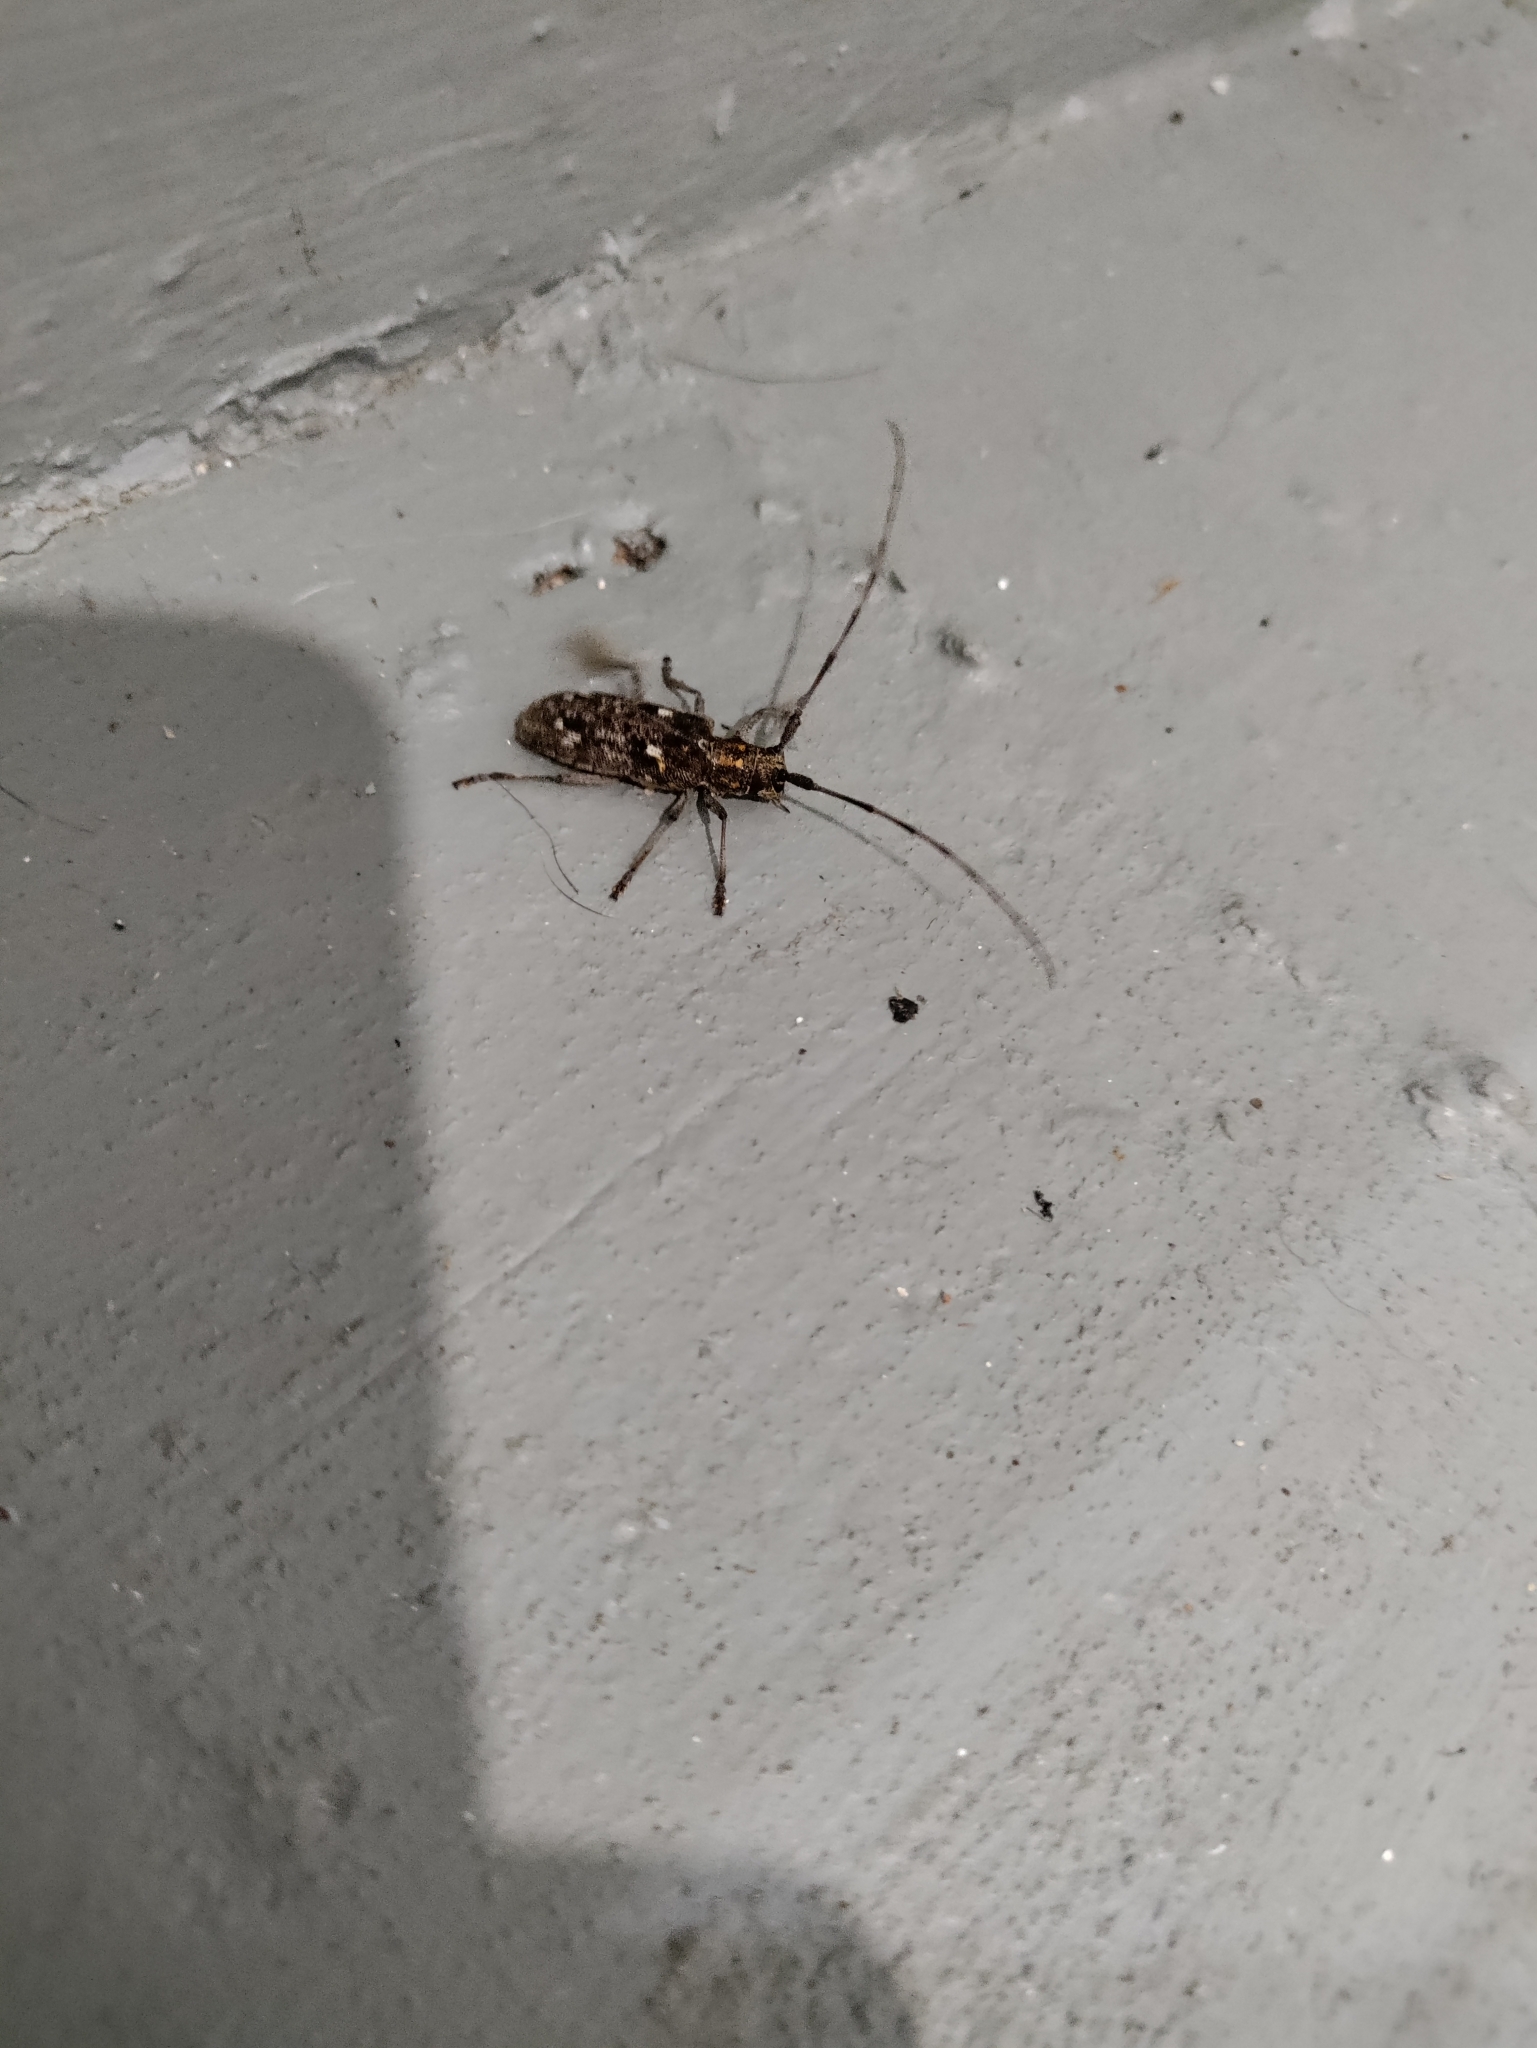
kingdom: Animalia
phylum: Arthropoda
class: Insecta
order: Coleoptera
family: Cerambycidae
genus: Monochamus
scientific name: Monochamus carolinensis
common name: Carolina pine sawyer
